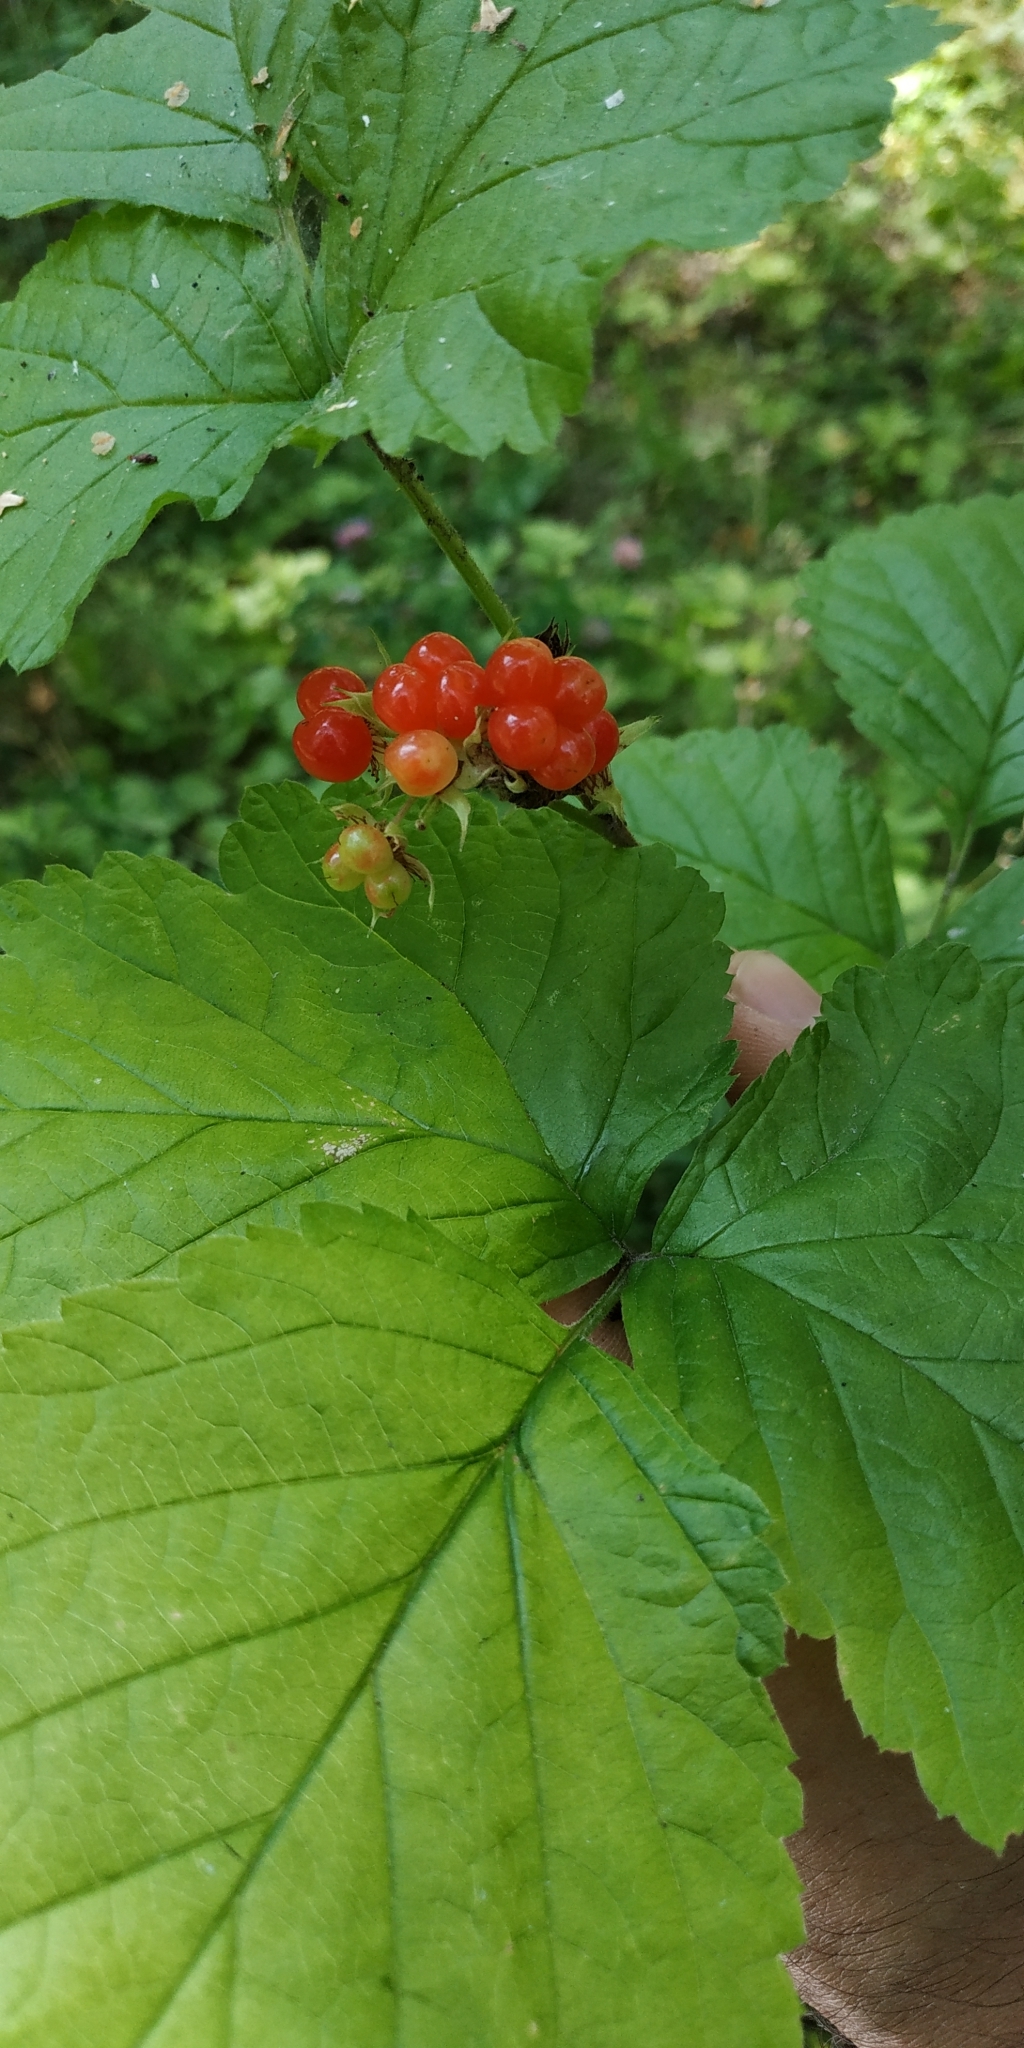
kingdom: Plantae
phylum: Tracheophyta
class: Magnoliopsida
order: Rosales
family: Rosaceae
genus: Rubus
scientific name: Rubus saxatilis
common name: Stone bramble
